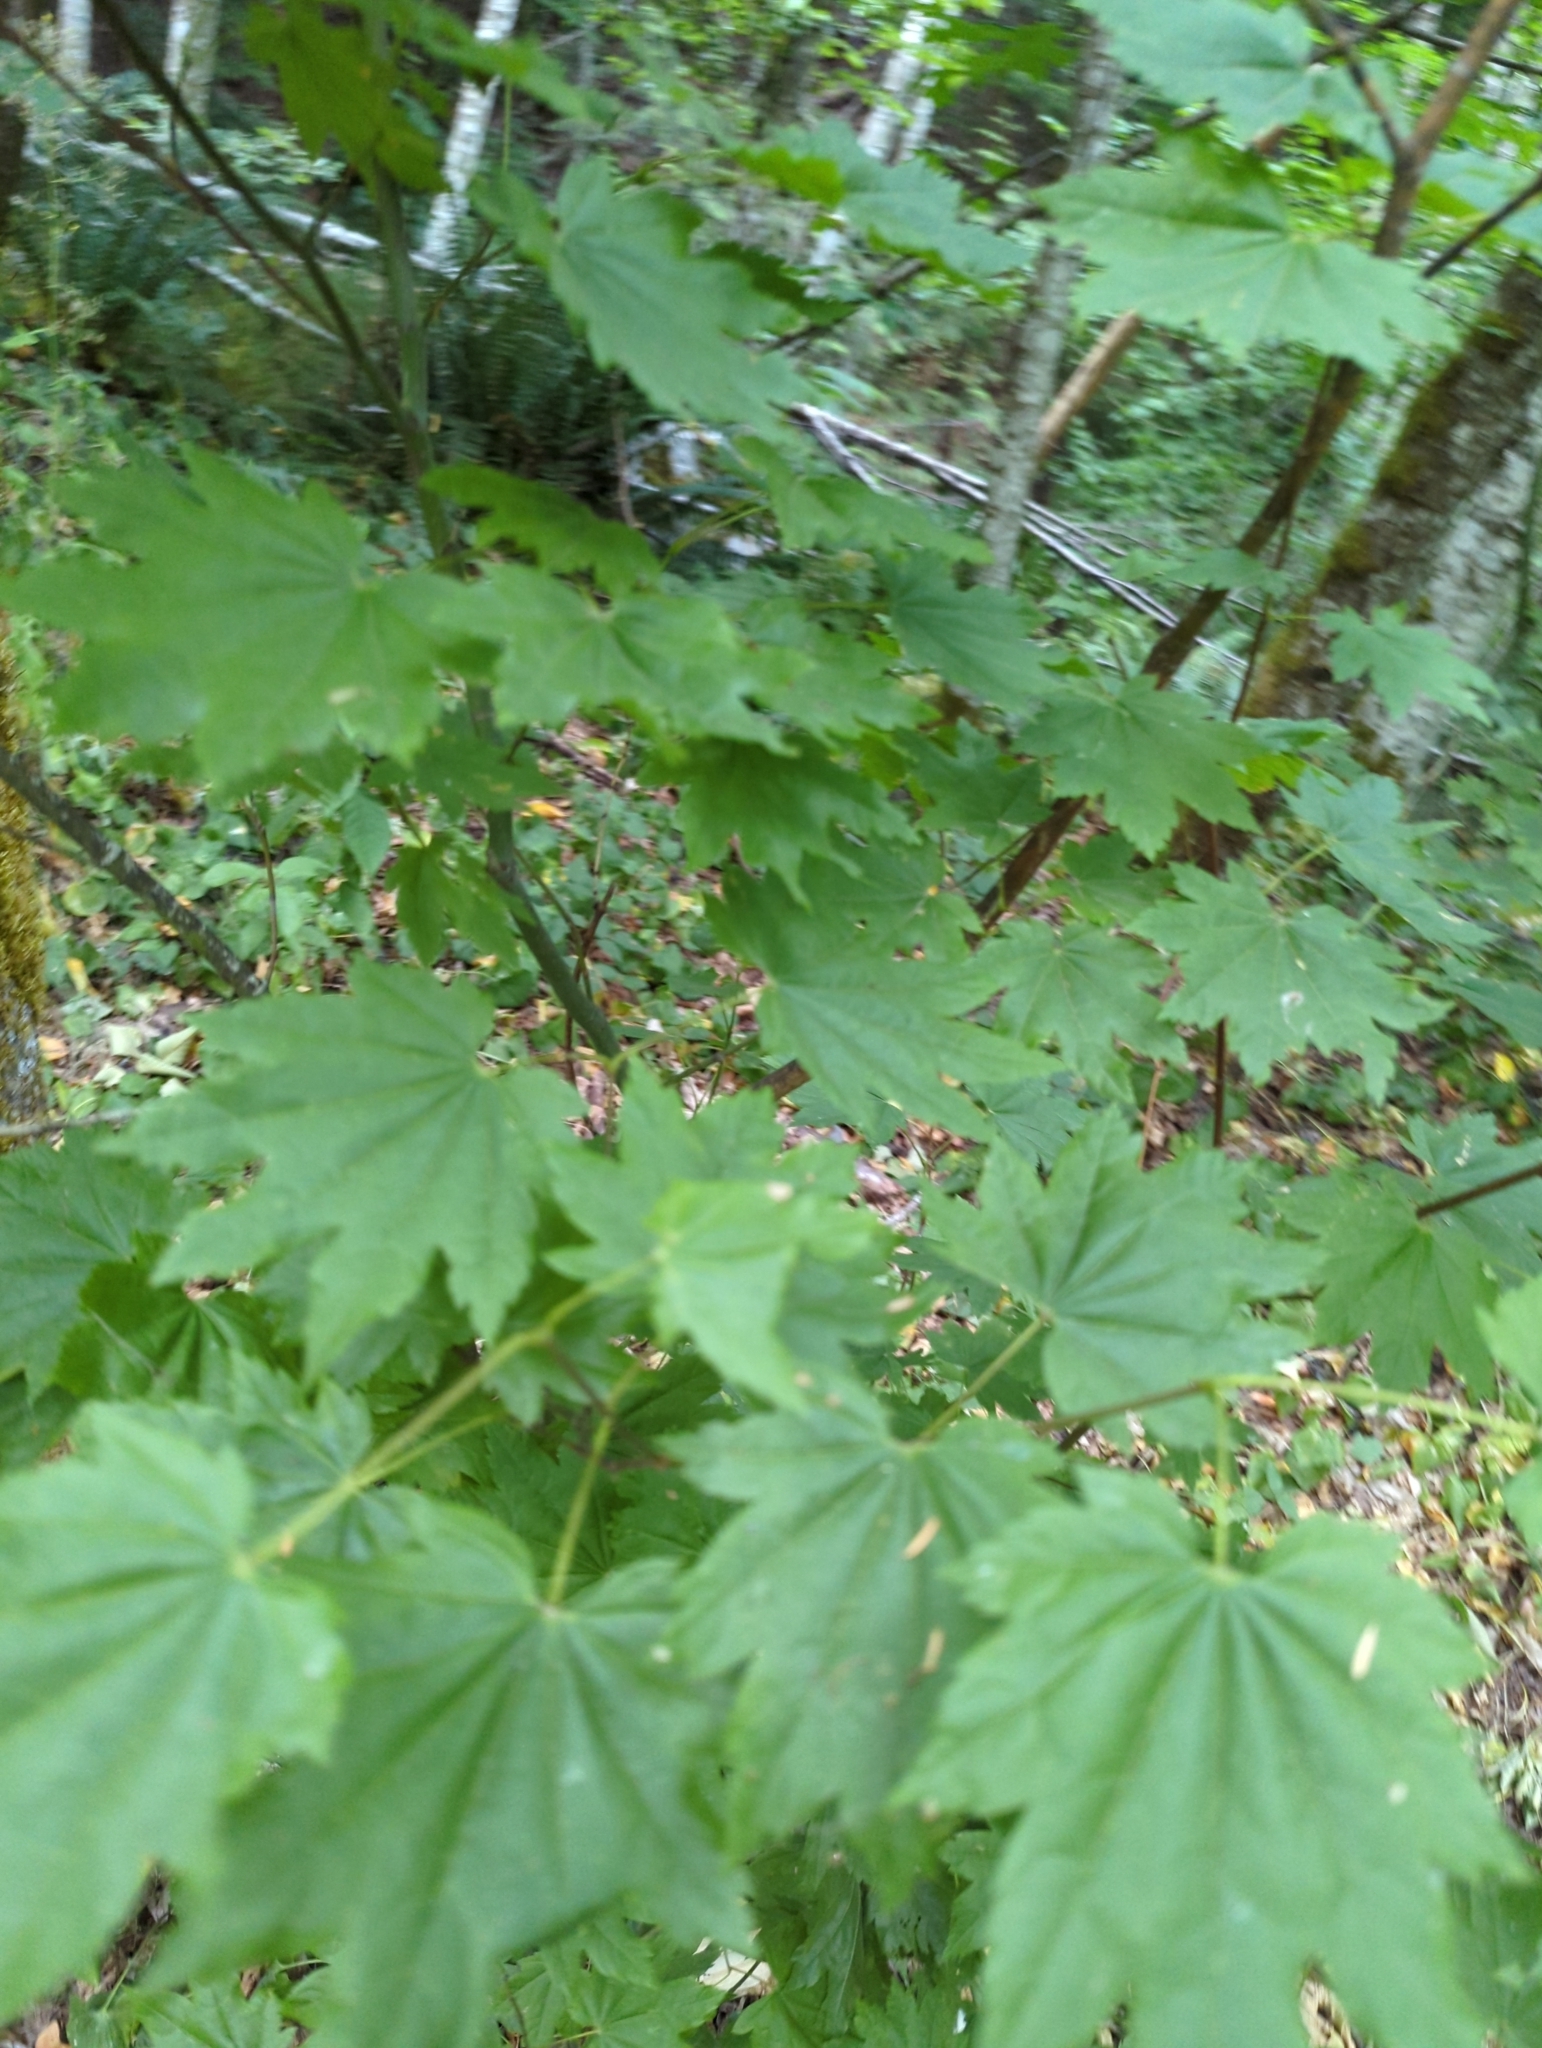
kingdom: Plantae
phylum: Tracheophyta
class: Magnoliopsida
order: Sapindales
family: Sapindaceae
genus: Acer
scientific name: Acer circinatum
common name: Vine maple
